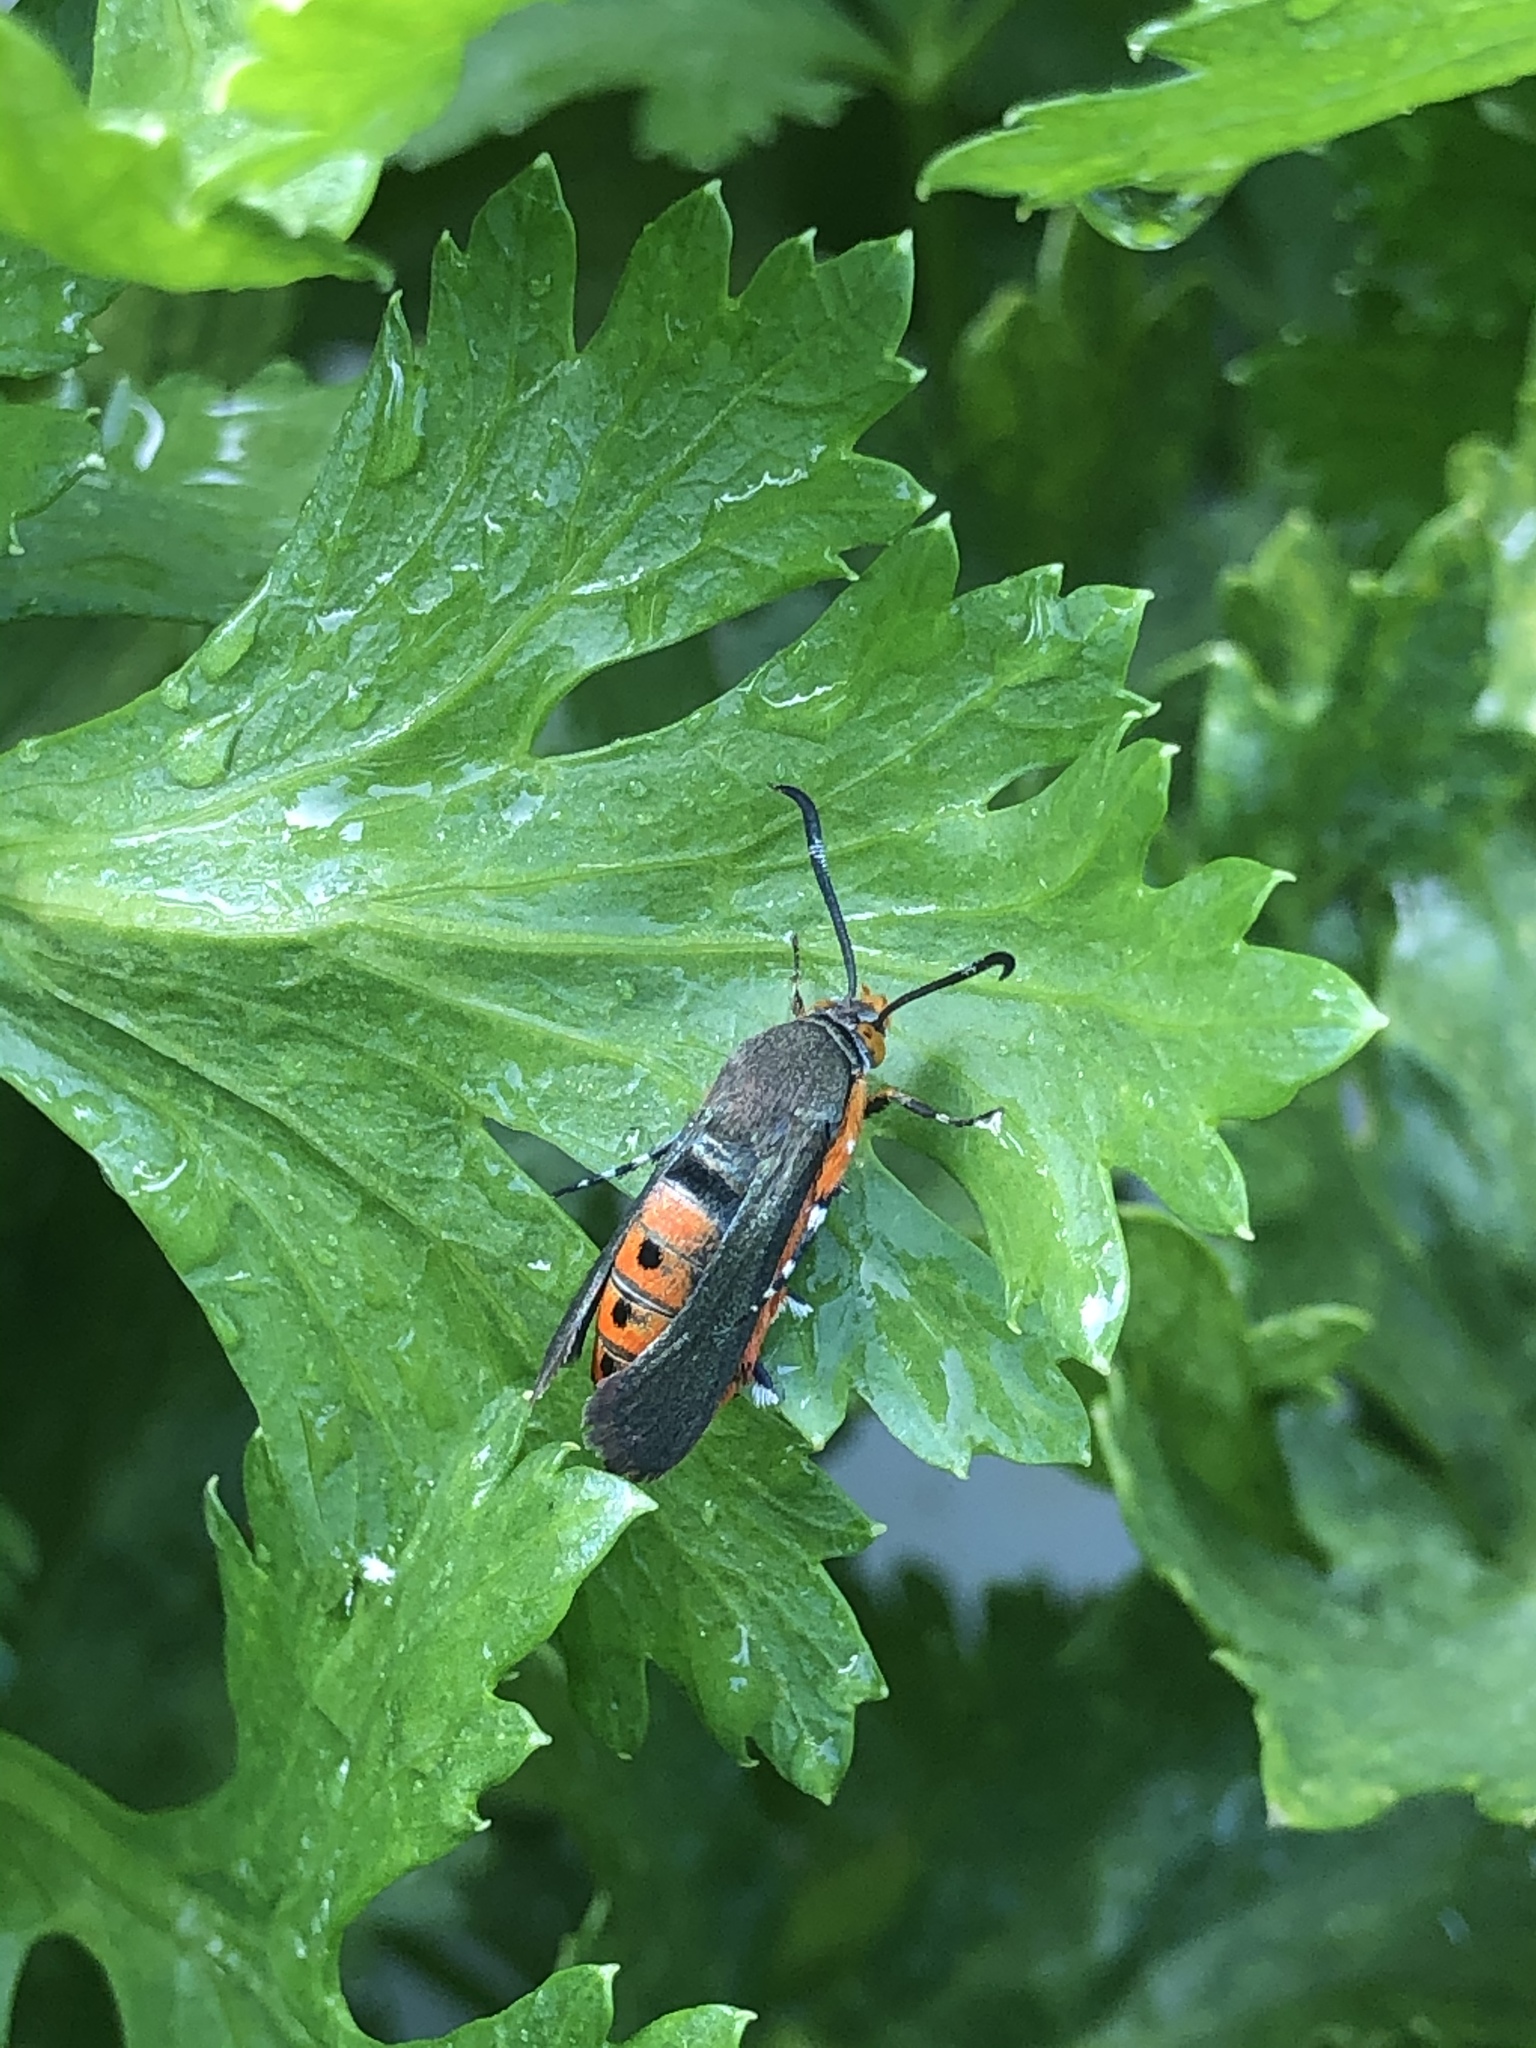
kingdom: Animalia
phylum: Arthropoda
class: Insecta
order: Lepidoptera
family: Sesiidae
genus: Eichlinia
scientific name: Eichlinia cucurbitae
